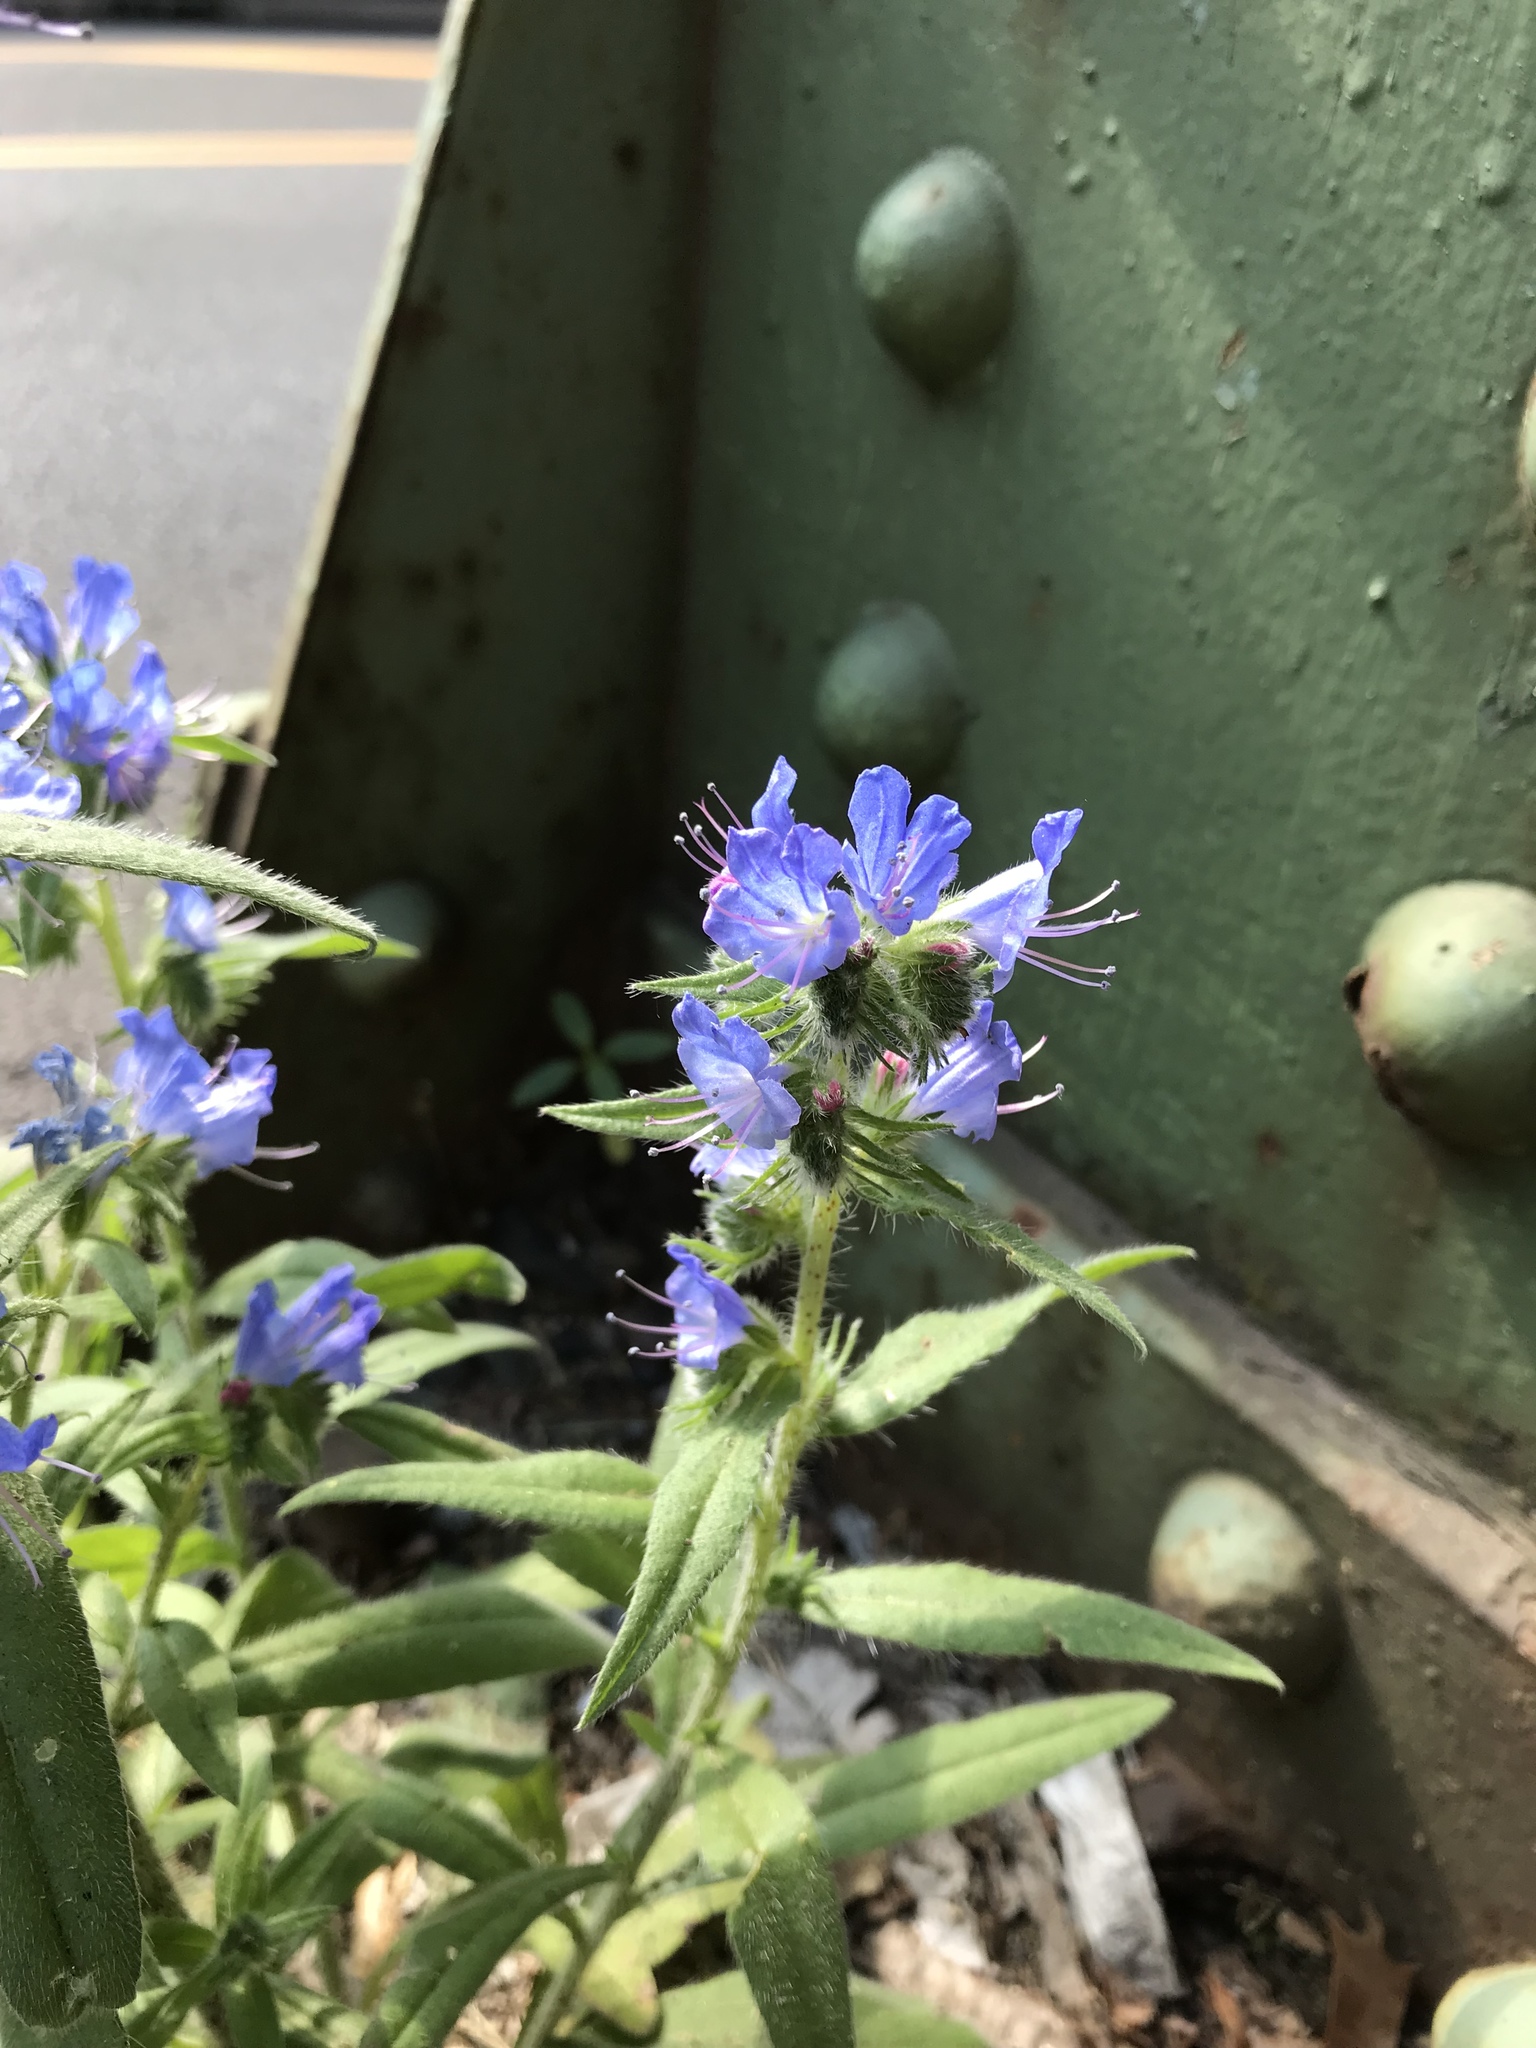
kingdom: Plantae
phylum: Tracheophyta
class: Magnoliopsida
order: Boraginales
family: Boraginaceae
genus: Echium
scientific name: Echium vulgare
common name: Common viper's bugloss
